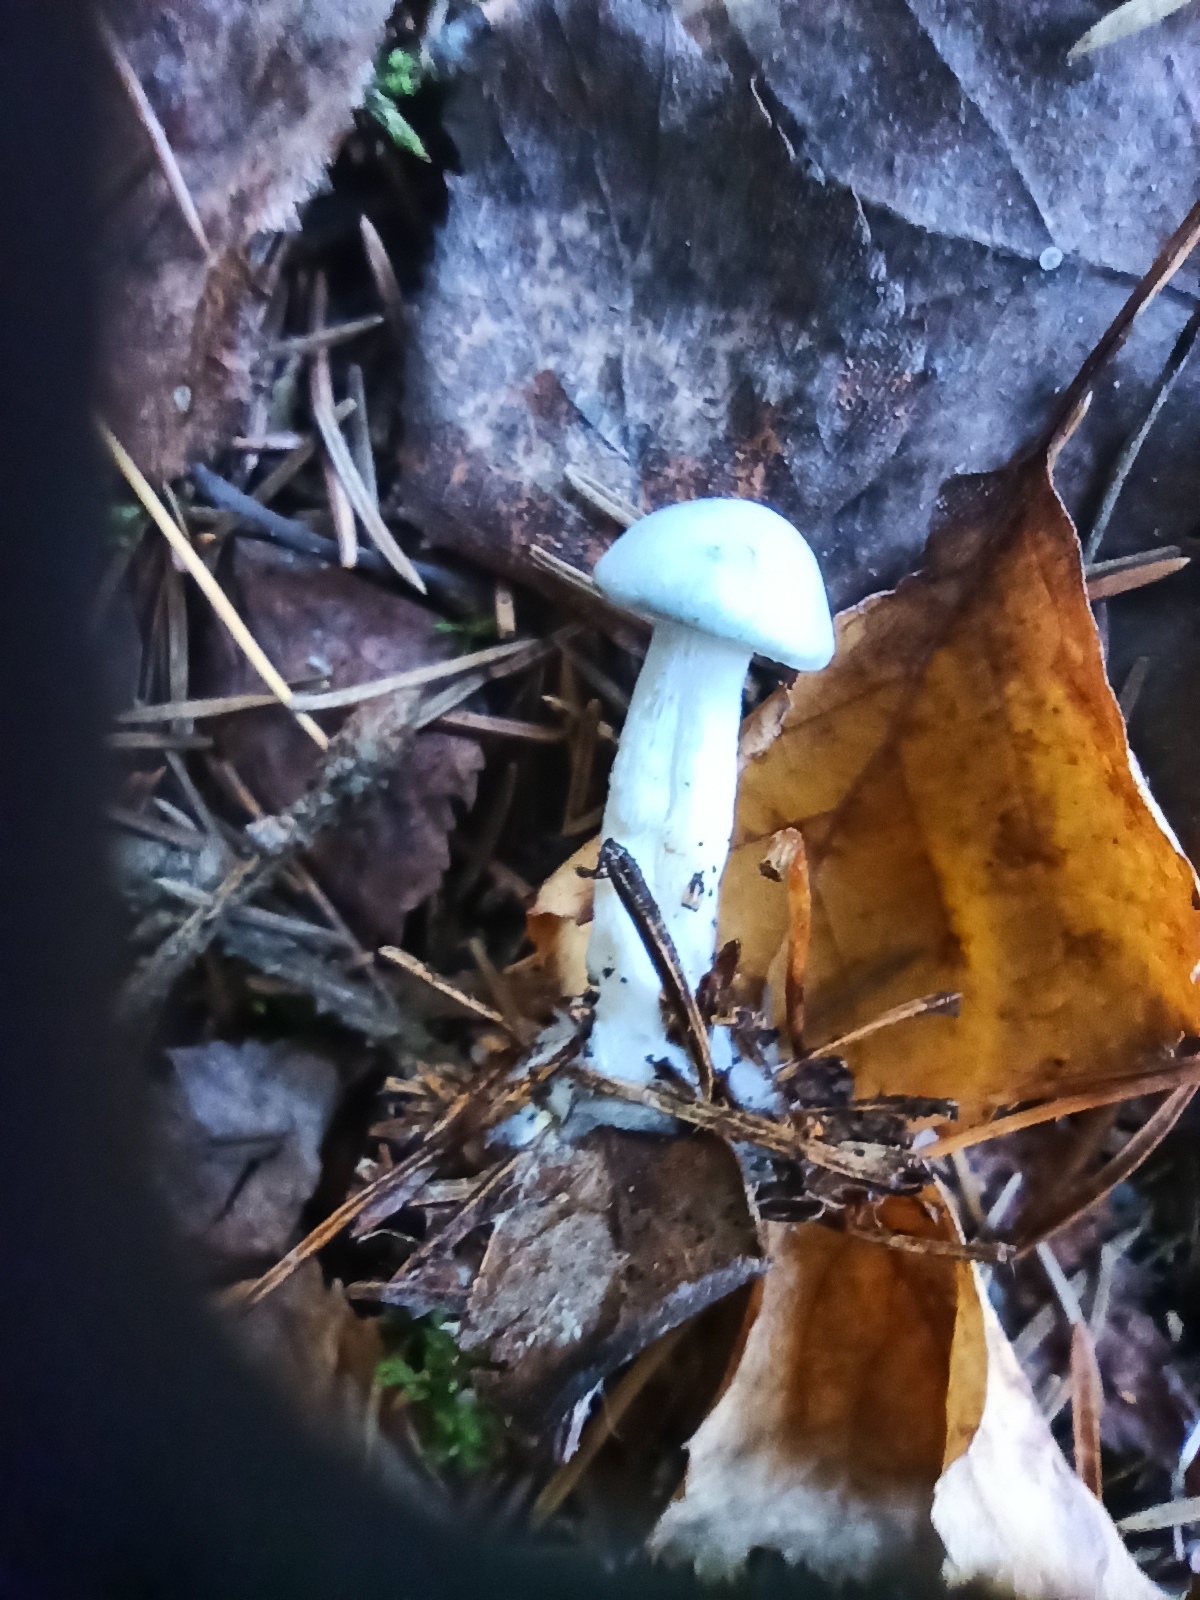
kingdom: Fungi
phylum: Basidiomycota
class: Agaricomycetes
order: Agaricales
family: Tricholomataceae
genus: Collybia
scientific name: Collybia
